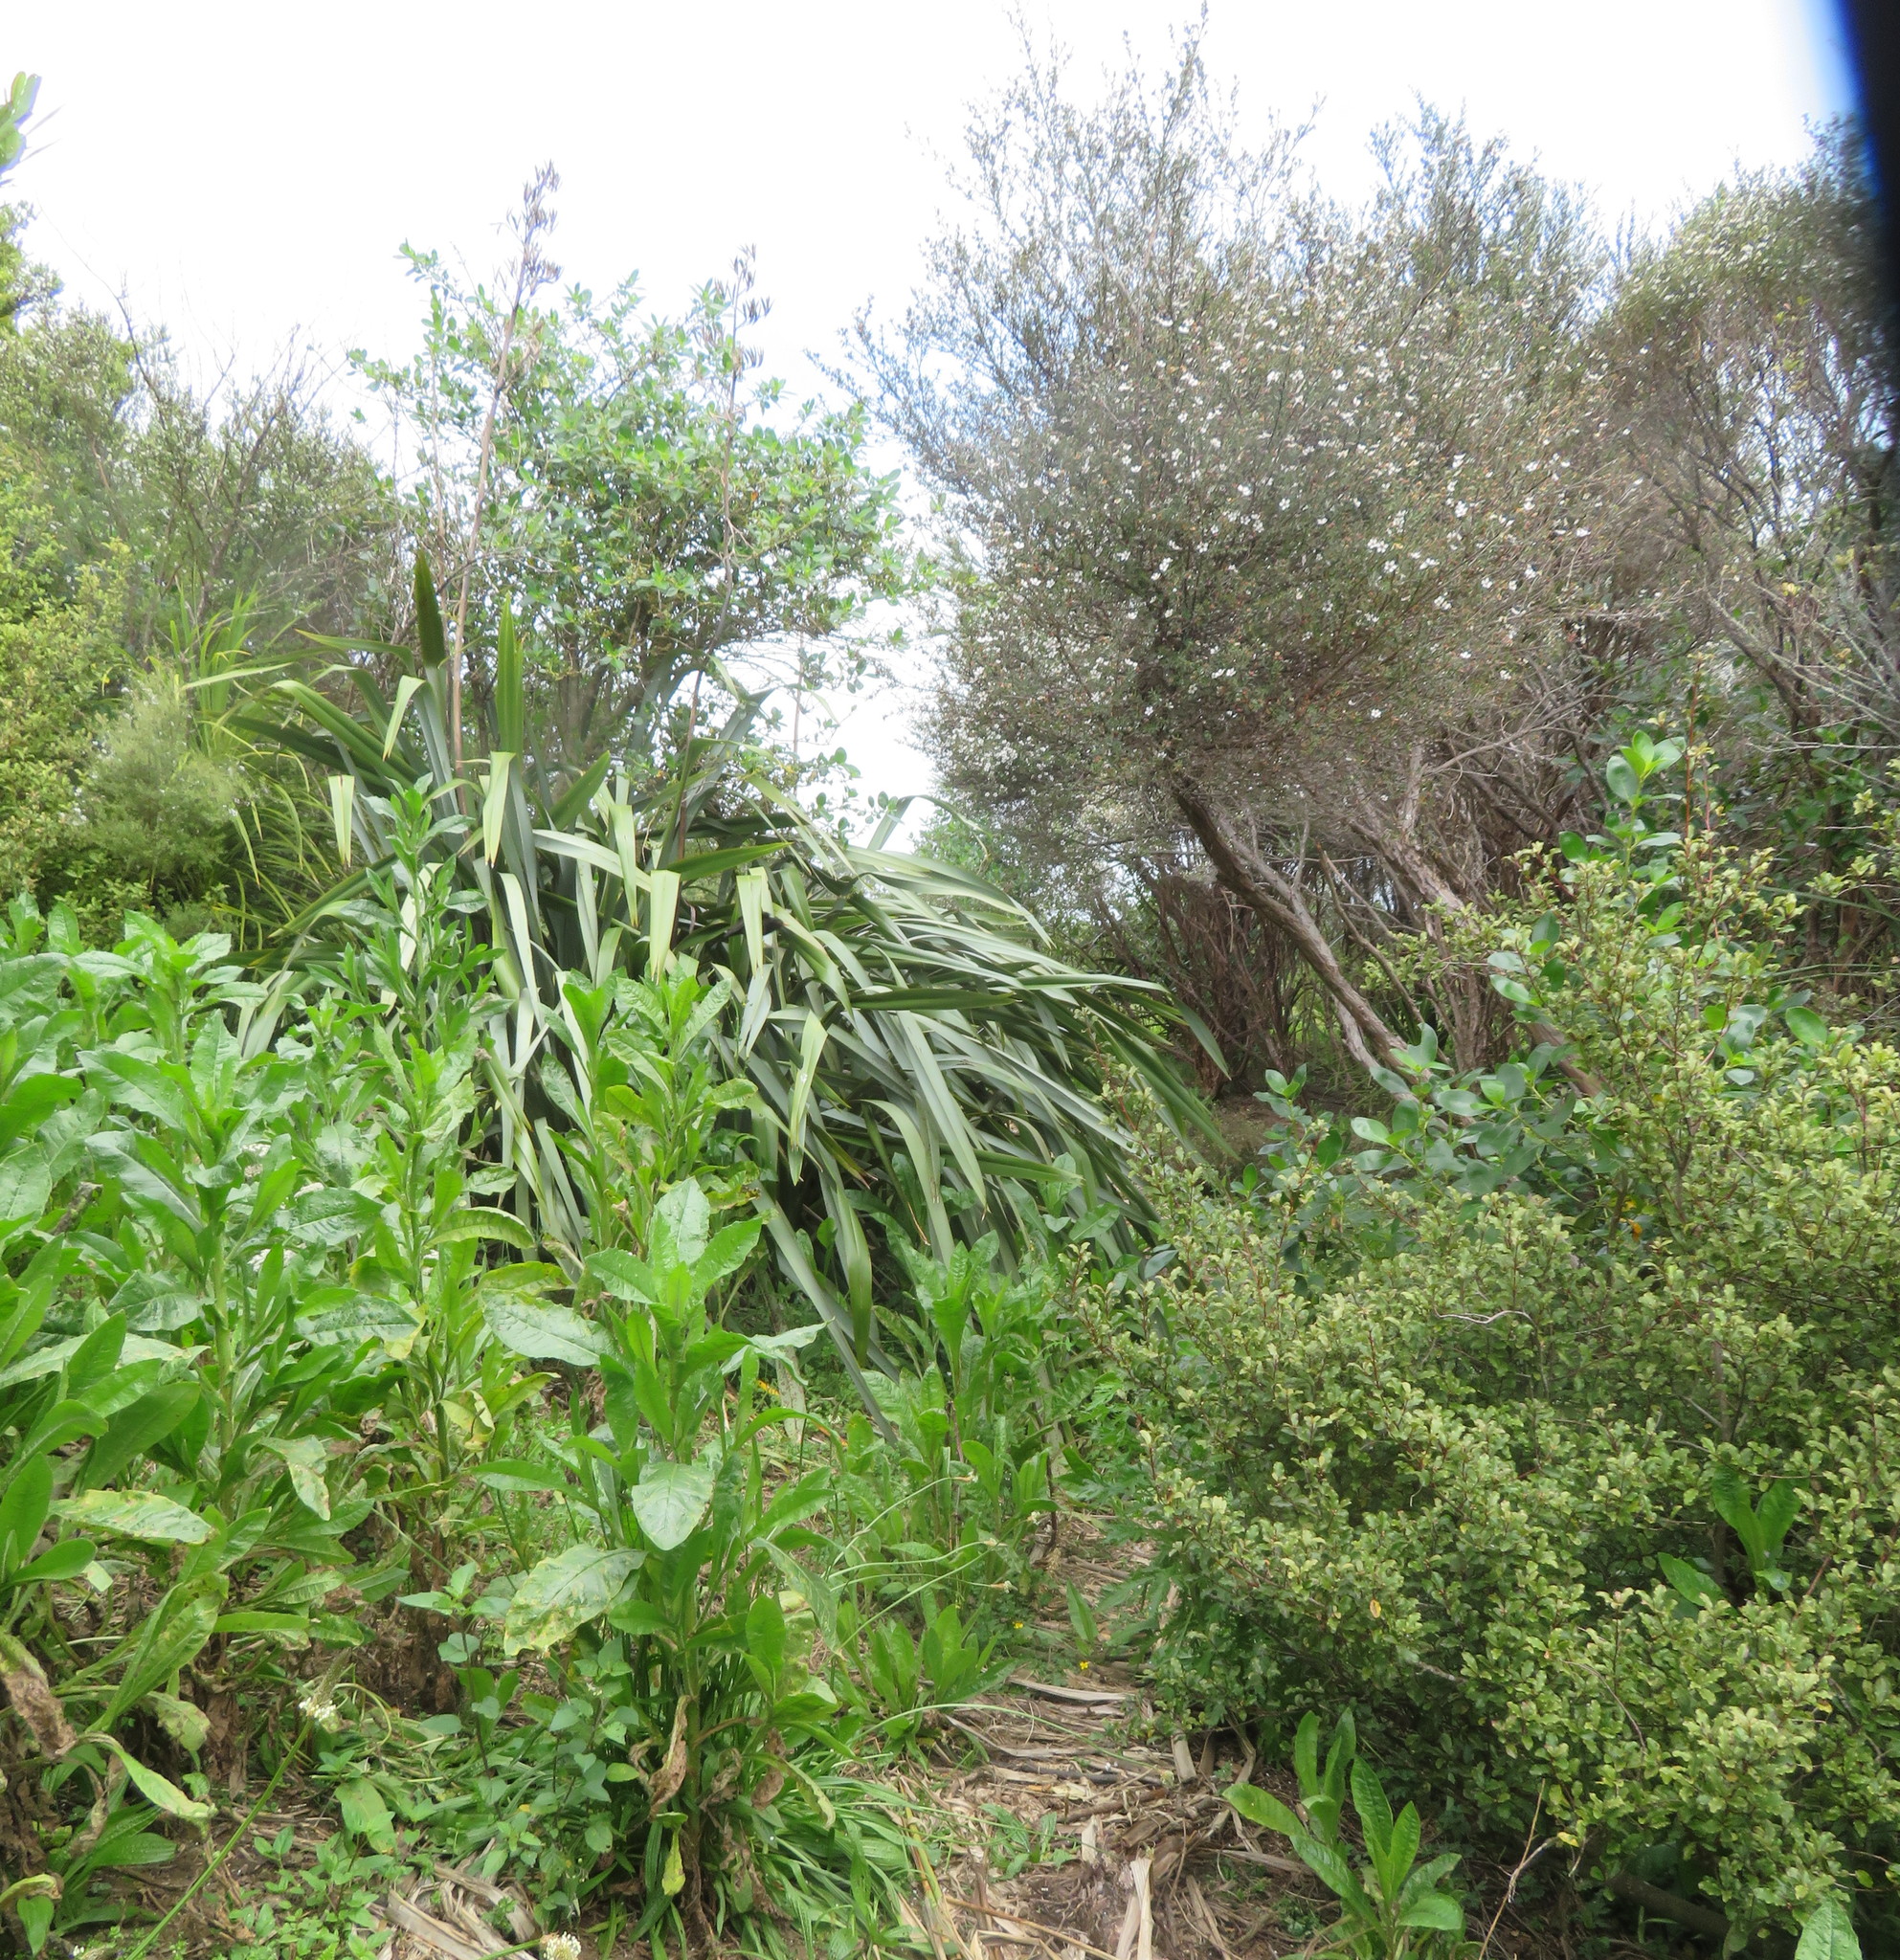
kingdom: Plantae
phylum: Tracheophyta
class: Magnoliopsida
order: Myrtales
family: Myrtaceae
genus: Leptospermum
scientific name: Leptospermum scoparium
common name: Broom tea-tree
